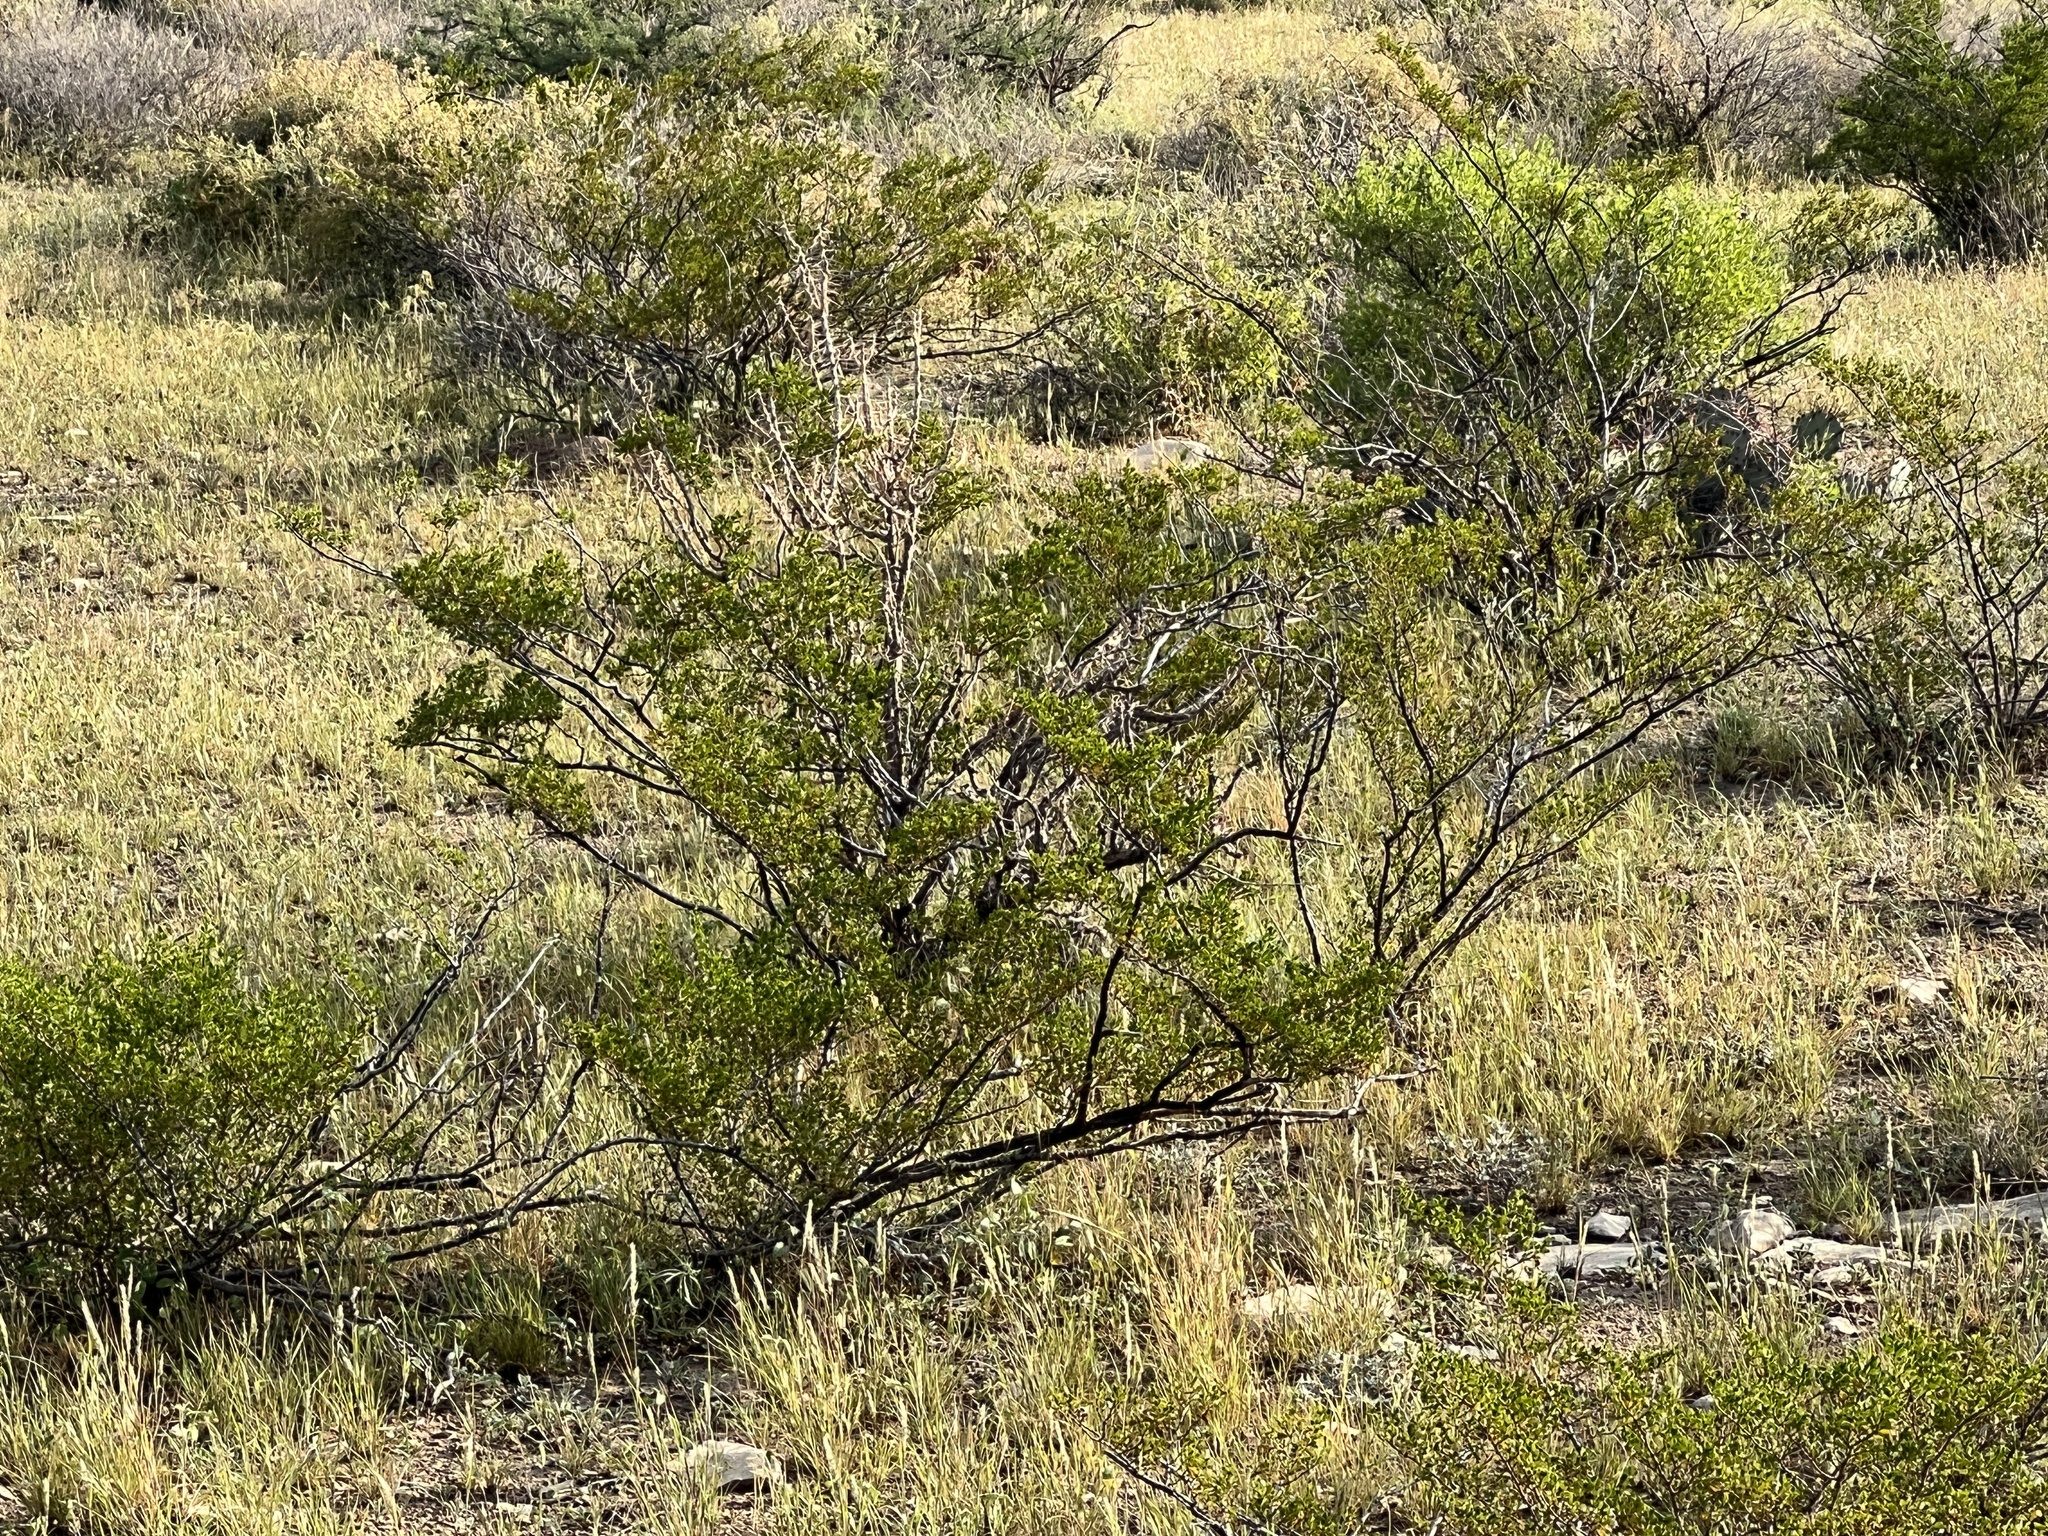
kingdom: Plantae
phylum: Tracheophyta
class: Magnoliopsida
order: Zygophyllales
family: Zygophyllaceae
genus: Larrea
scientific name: Larrea tridentata
